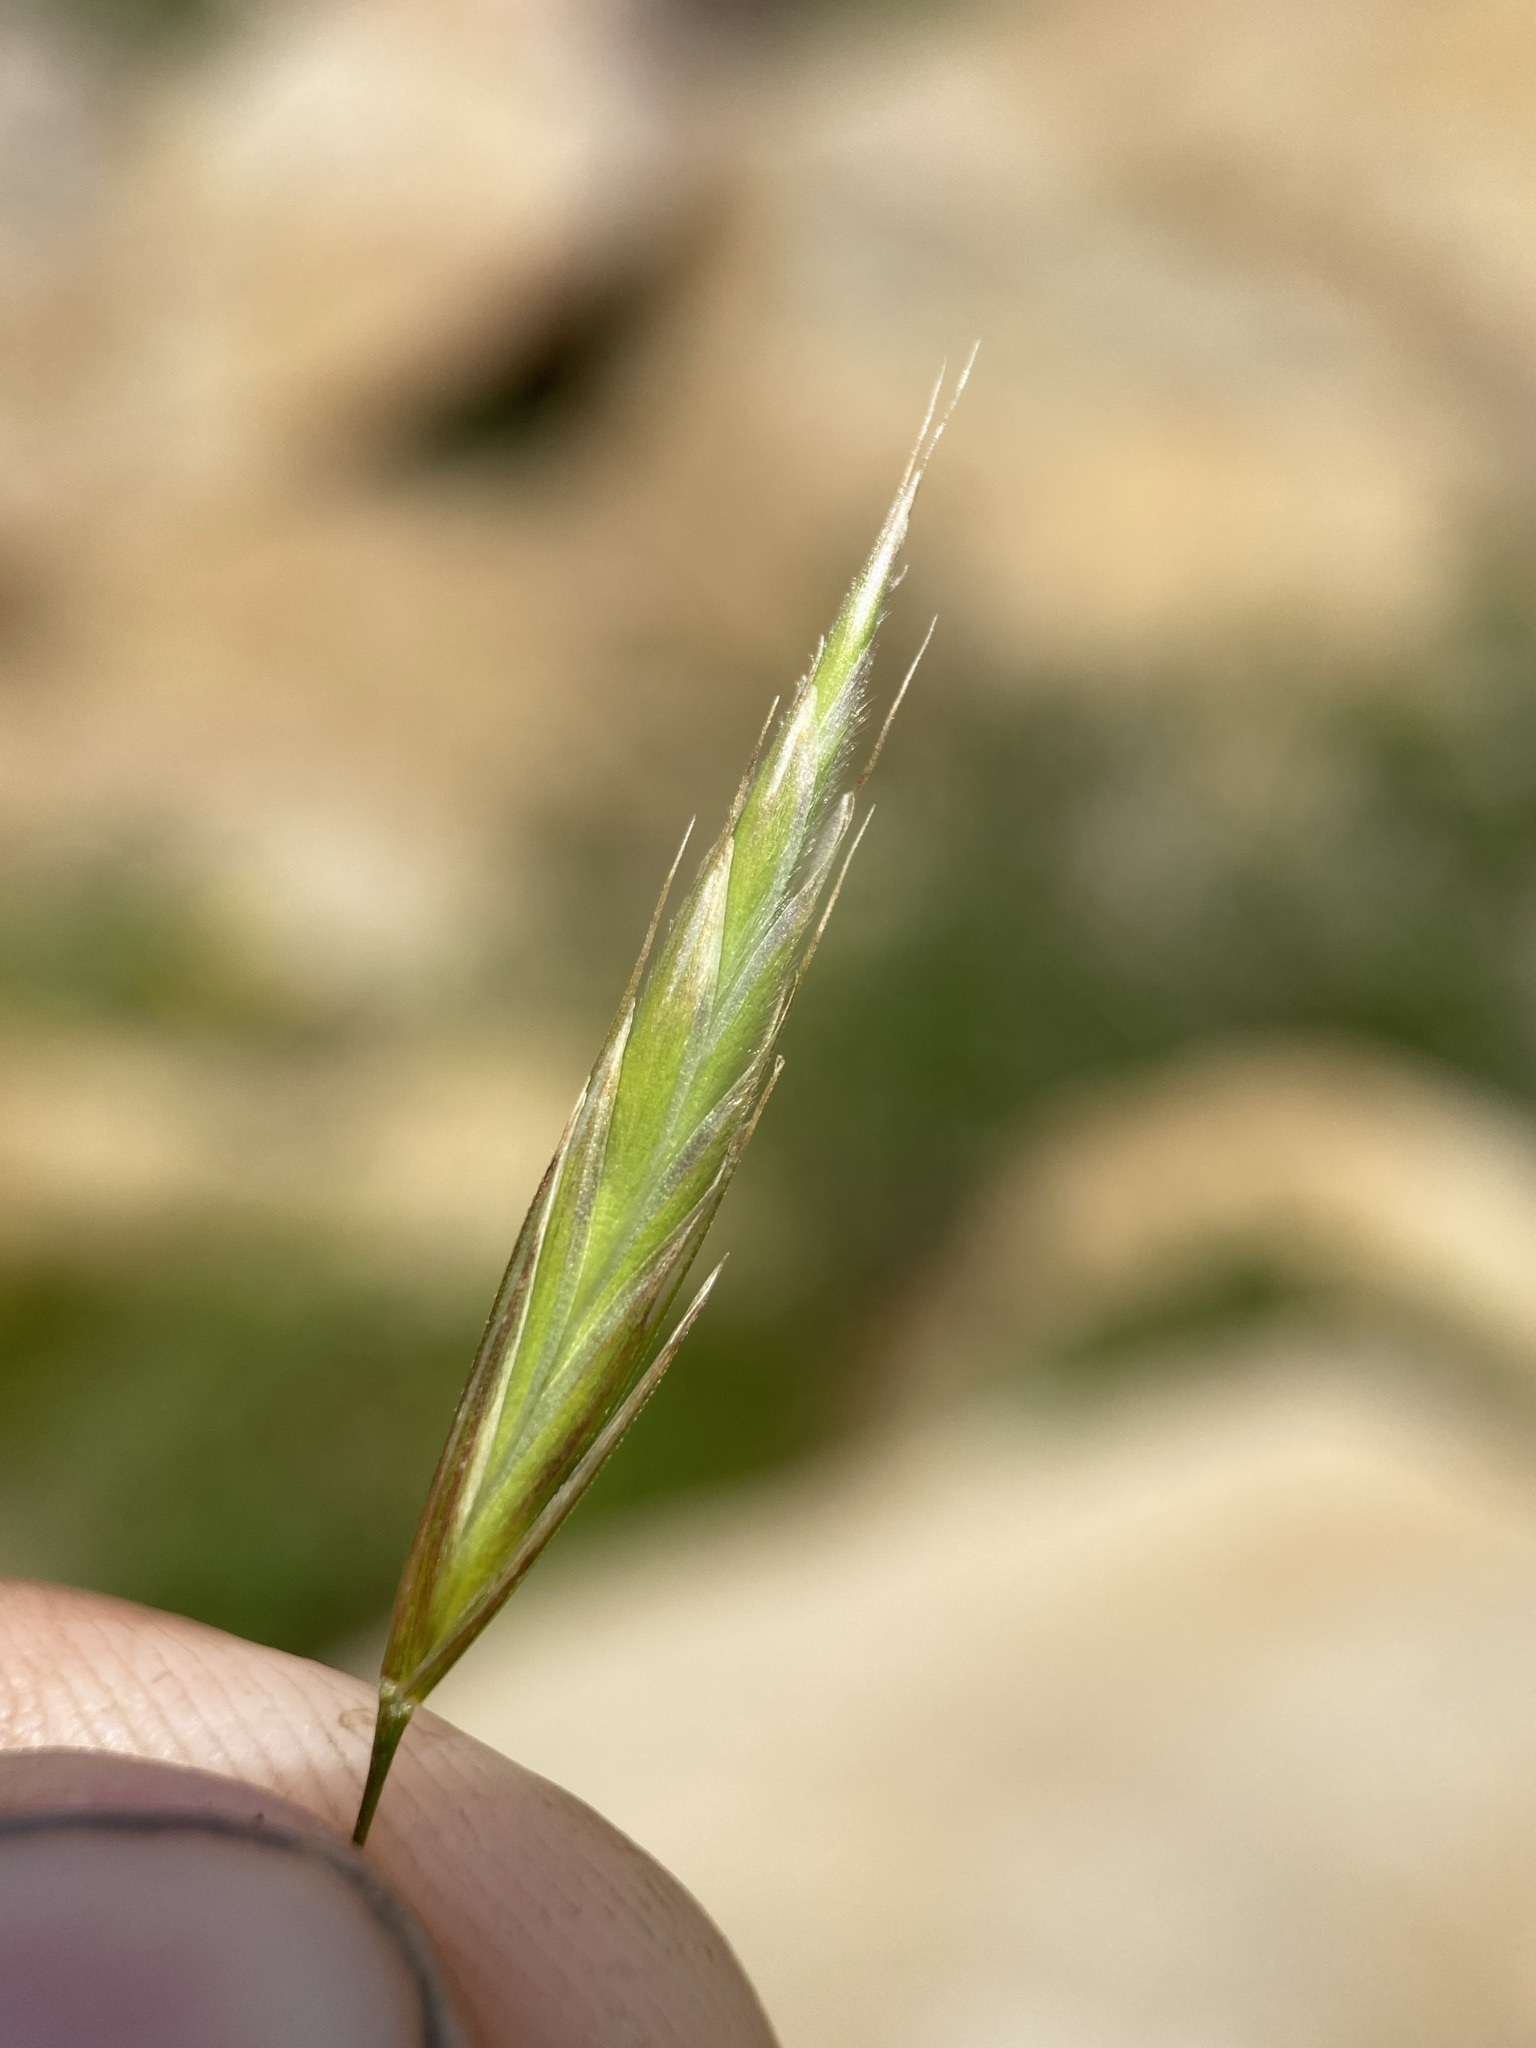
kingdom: Plantae
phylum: Tracheophyta
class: Liliopsida
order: Poales
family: Poaceae
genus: Bromus
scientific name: Bromus ciliatus
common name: Fringe brome
